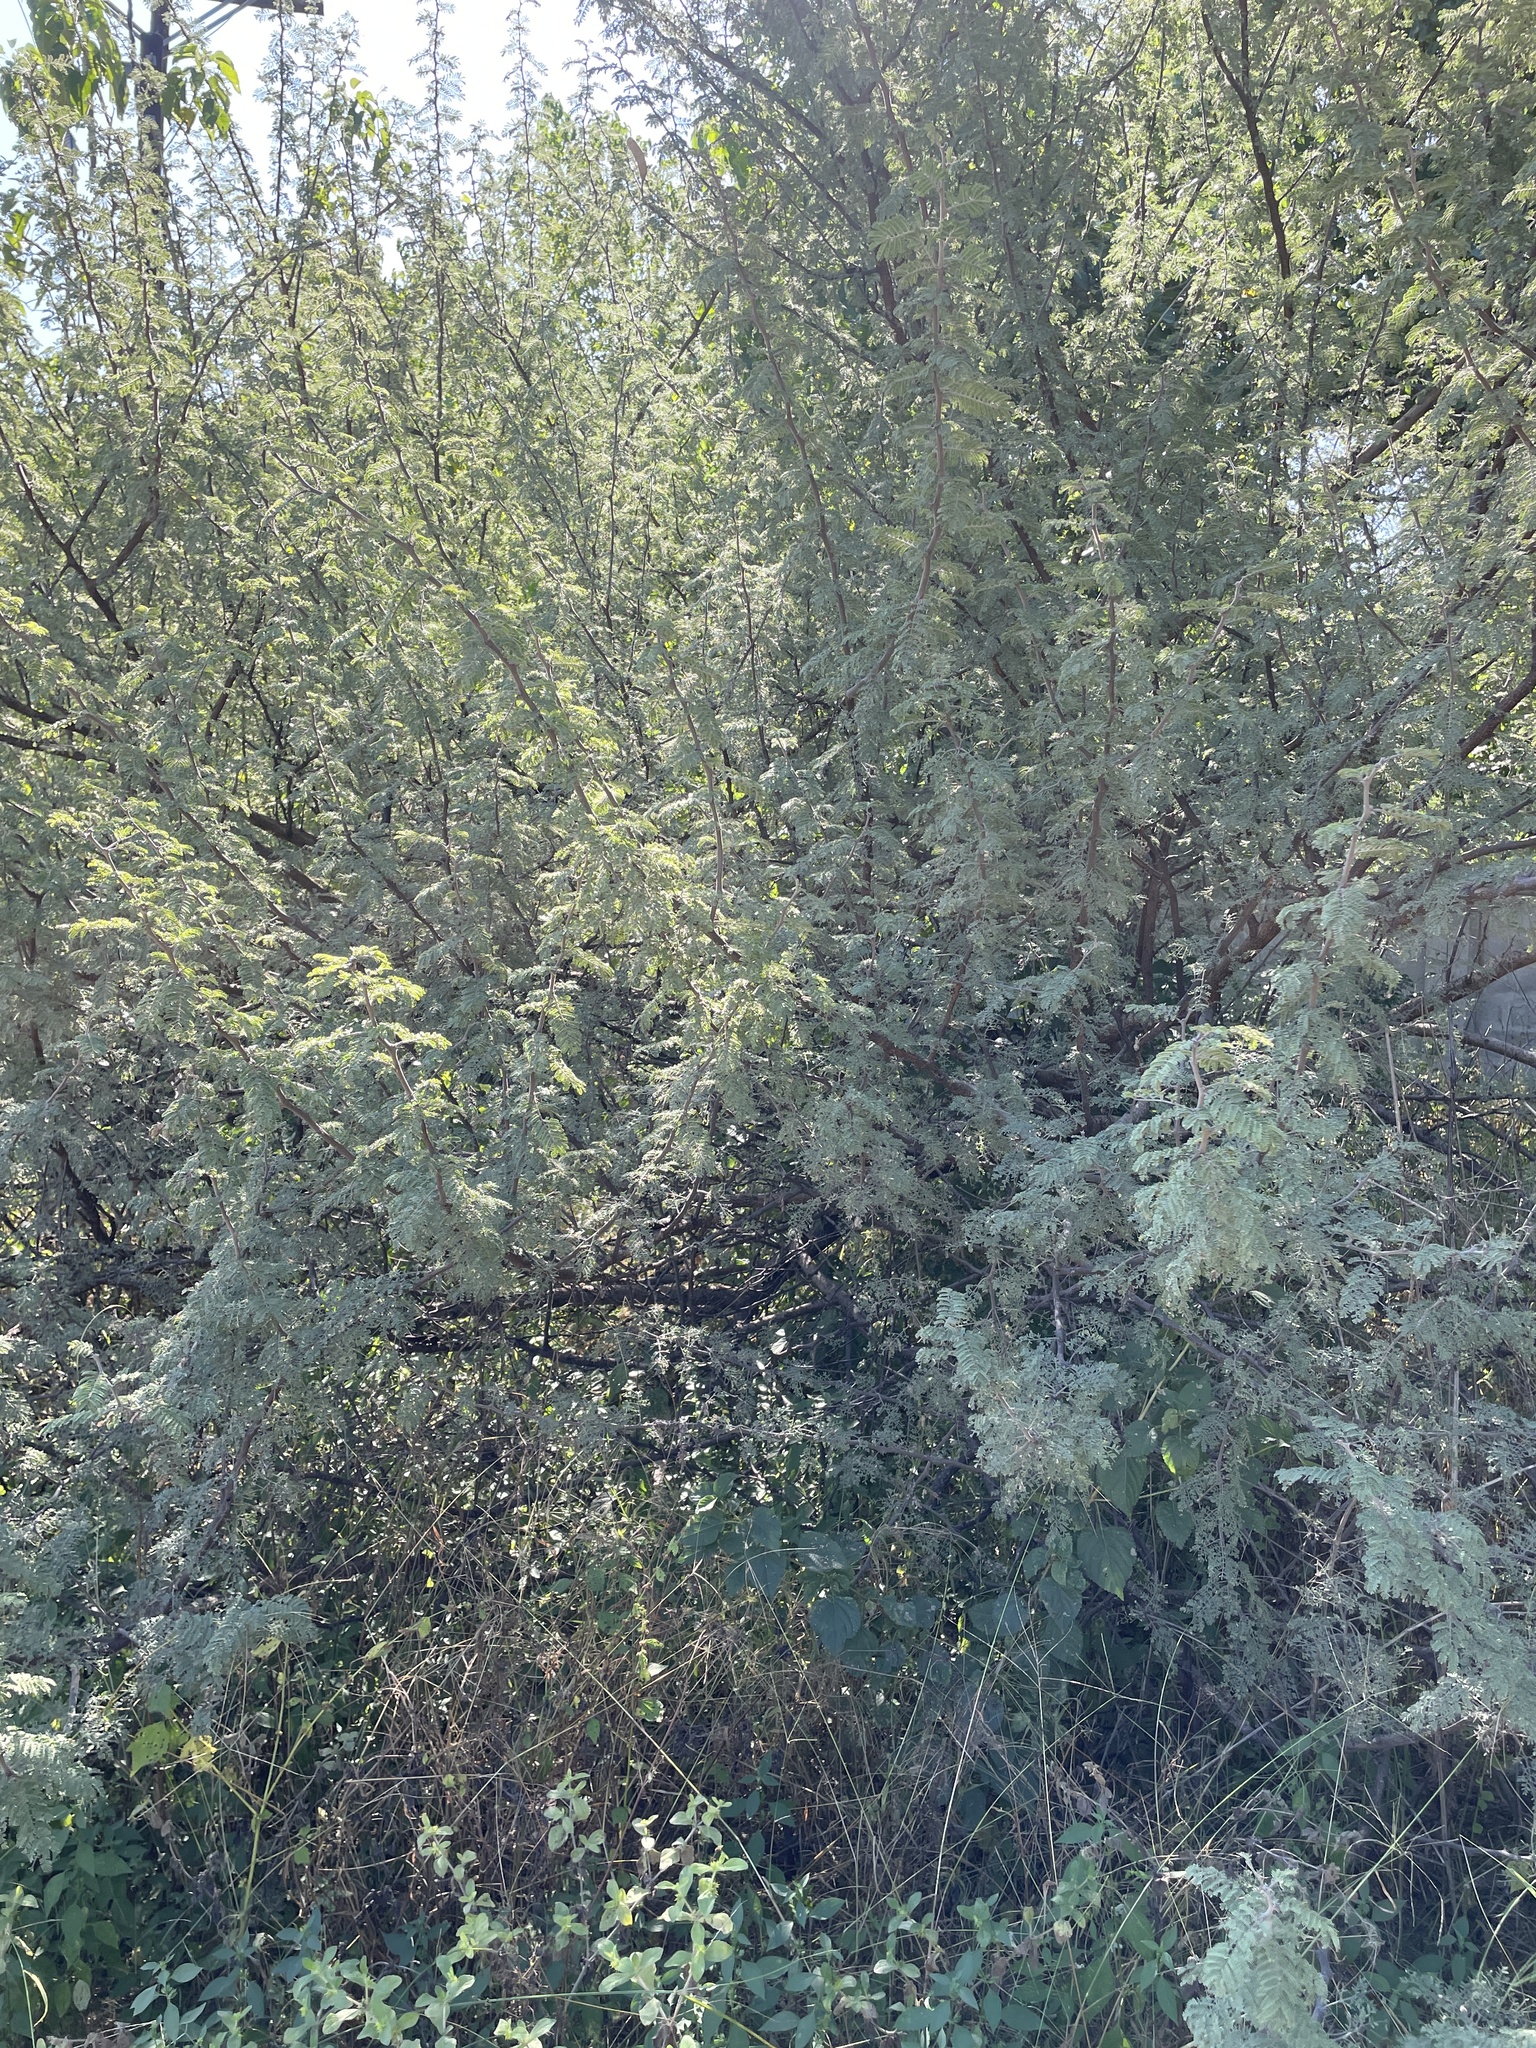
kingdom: Plantae
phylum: Tracheophyta
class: Magnoliopsida
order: Fabales
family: Fabaceae
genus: Vachellia
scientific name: Vachellia hebeclada
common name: Candle thorn
